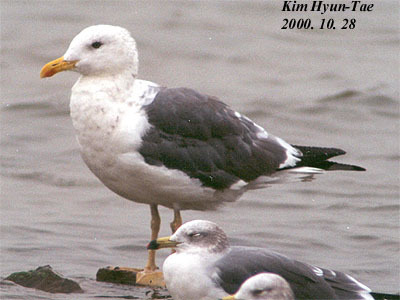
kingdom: Animalia
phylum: Chordata
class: Aves
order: Charadriiformes
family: Laridae
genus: Larus
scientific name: Larus fuscus
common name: Lesser black-backed gull
